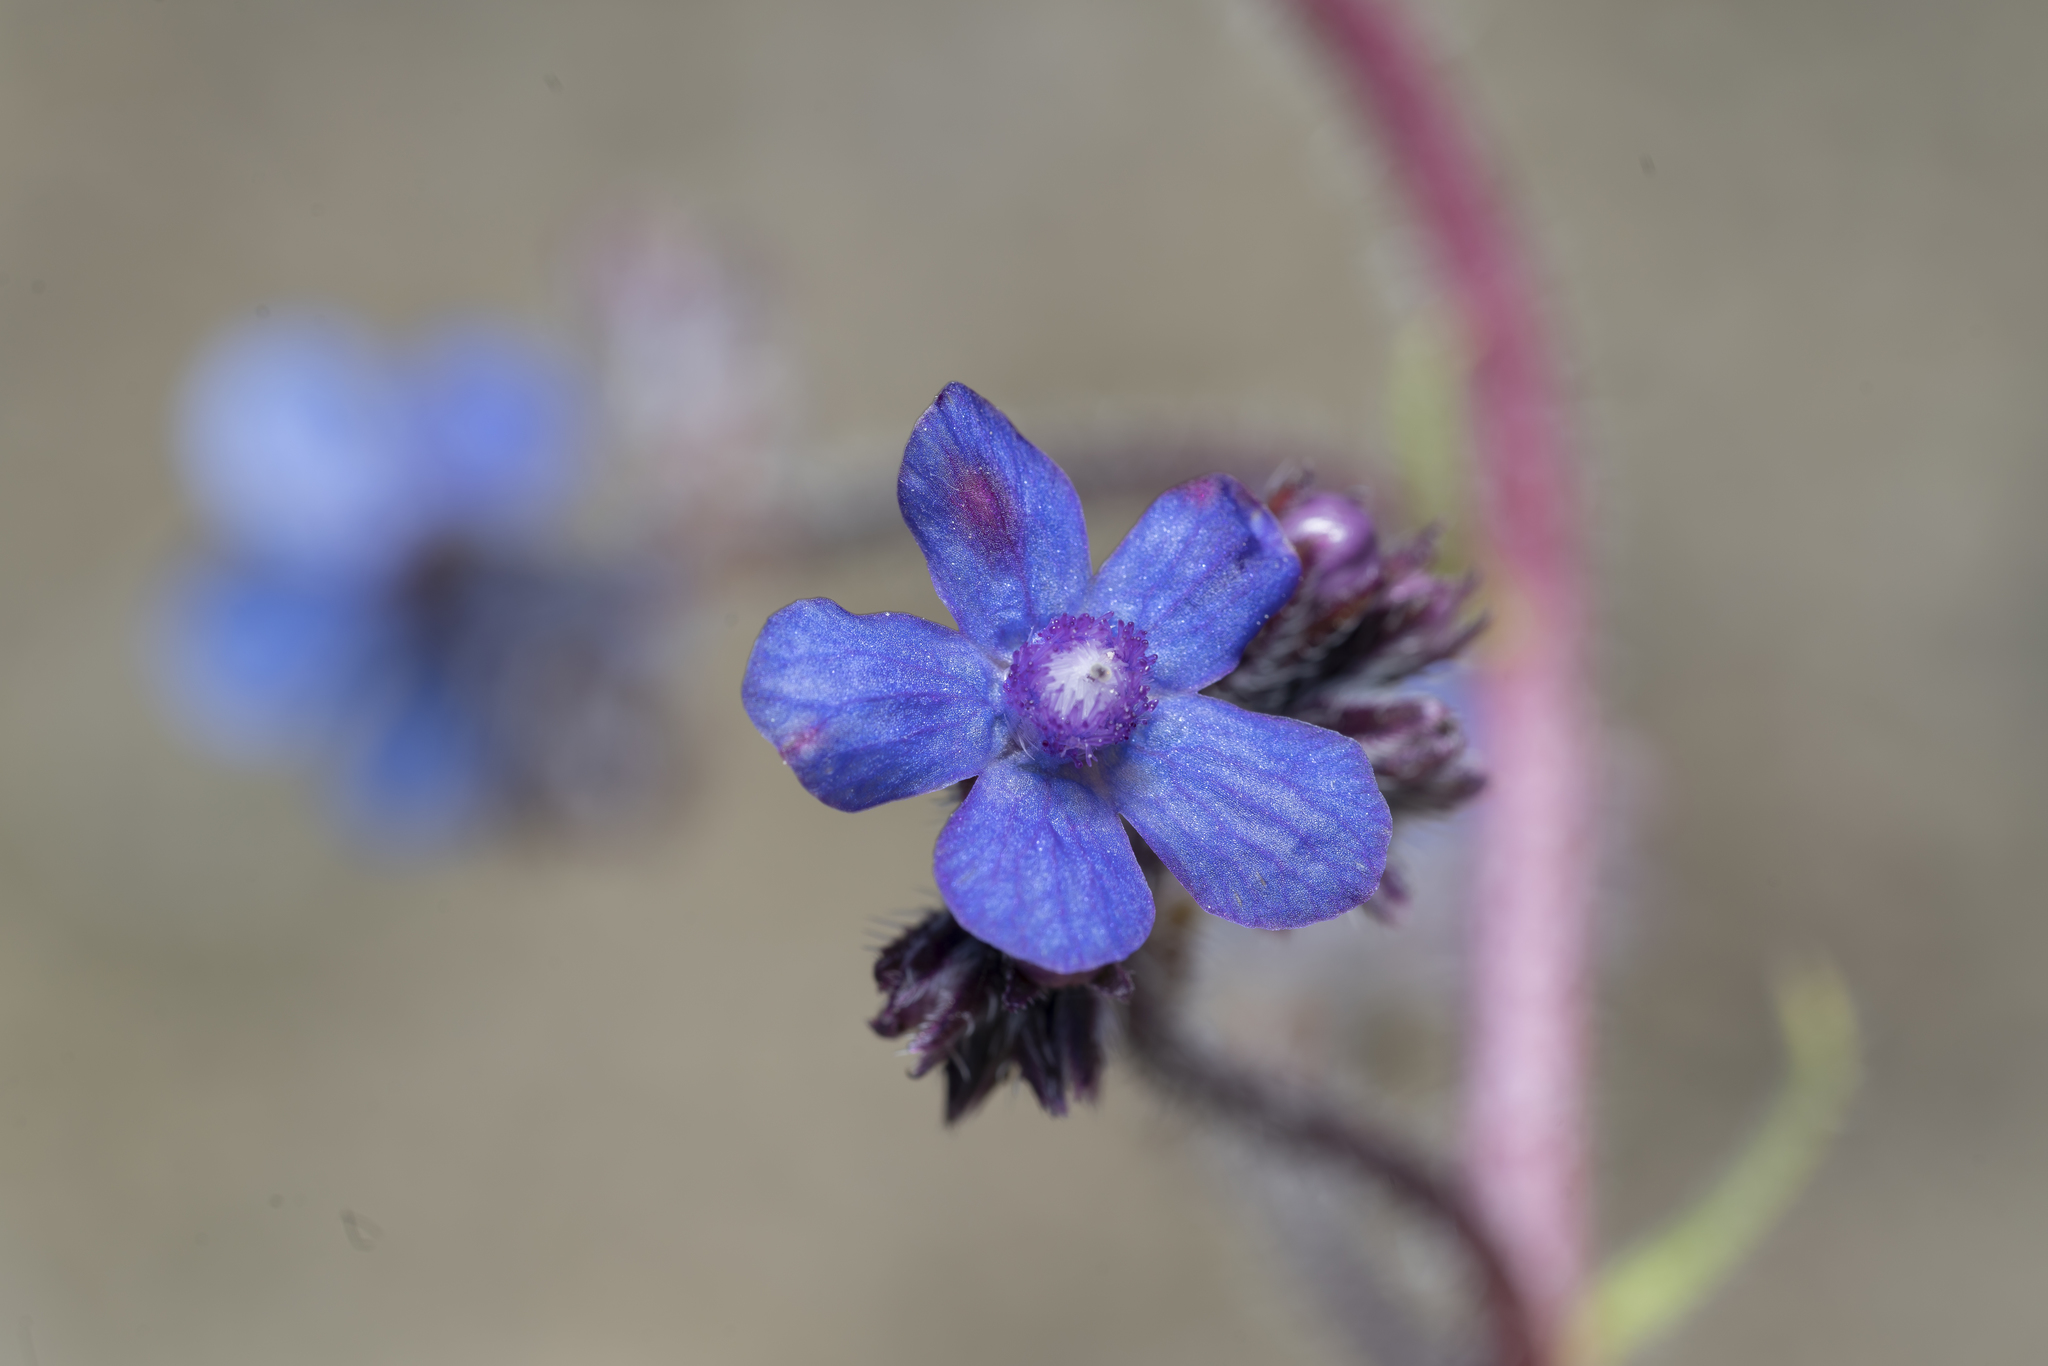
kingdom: Plantae
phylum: Tracheophyta
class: Magnoliopsida
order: Boraginales
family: Boraginaceae
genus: Anchusa
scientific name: Anchusa azurea
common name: Garden anchusa
